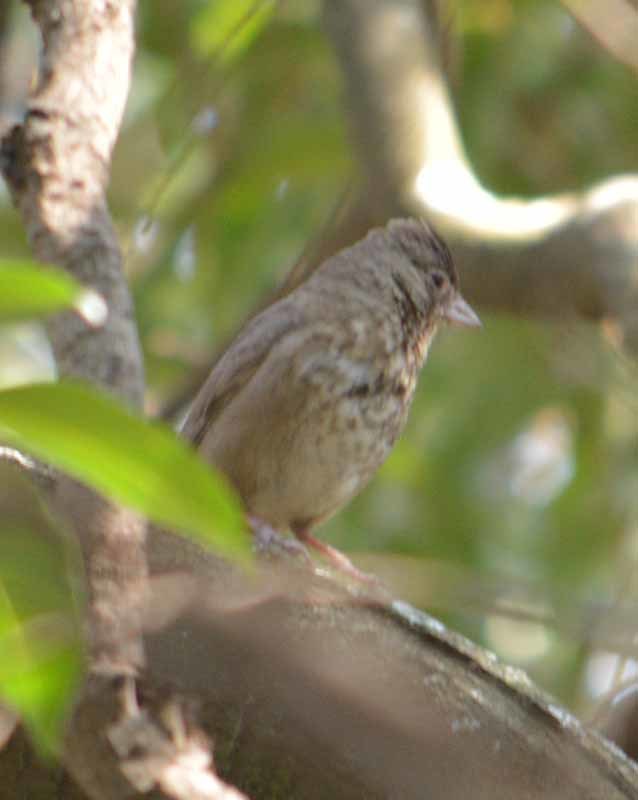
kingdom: Animalia
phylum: Chordata
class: Aves
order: Passeriformes
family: Passerellidae
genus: Melozone
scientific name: Melozone fusca
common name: Canyon towhee
